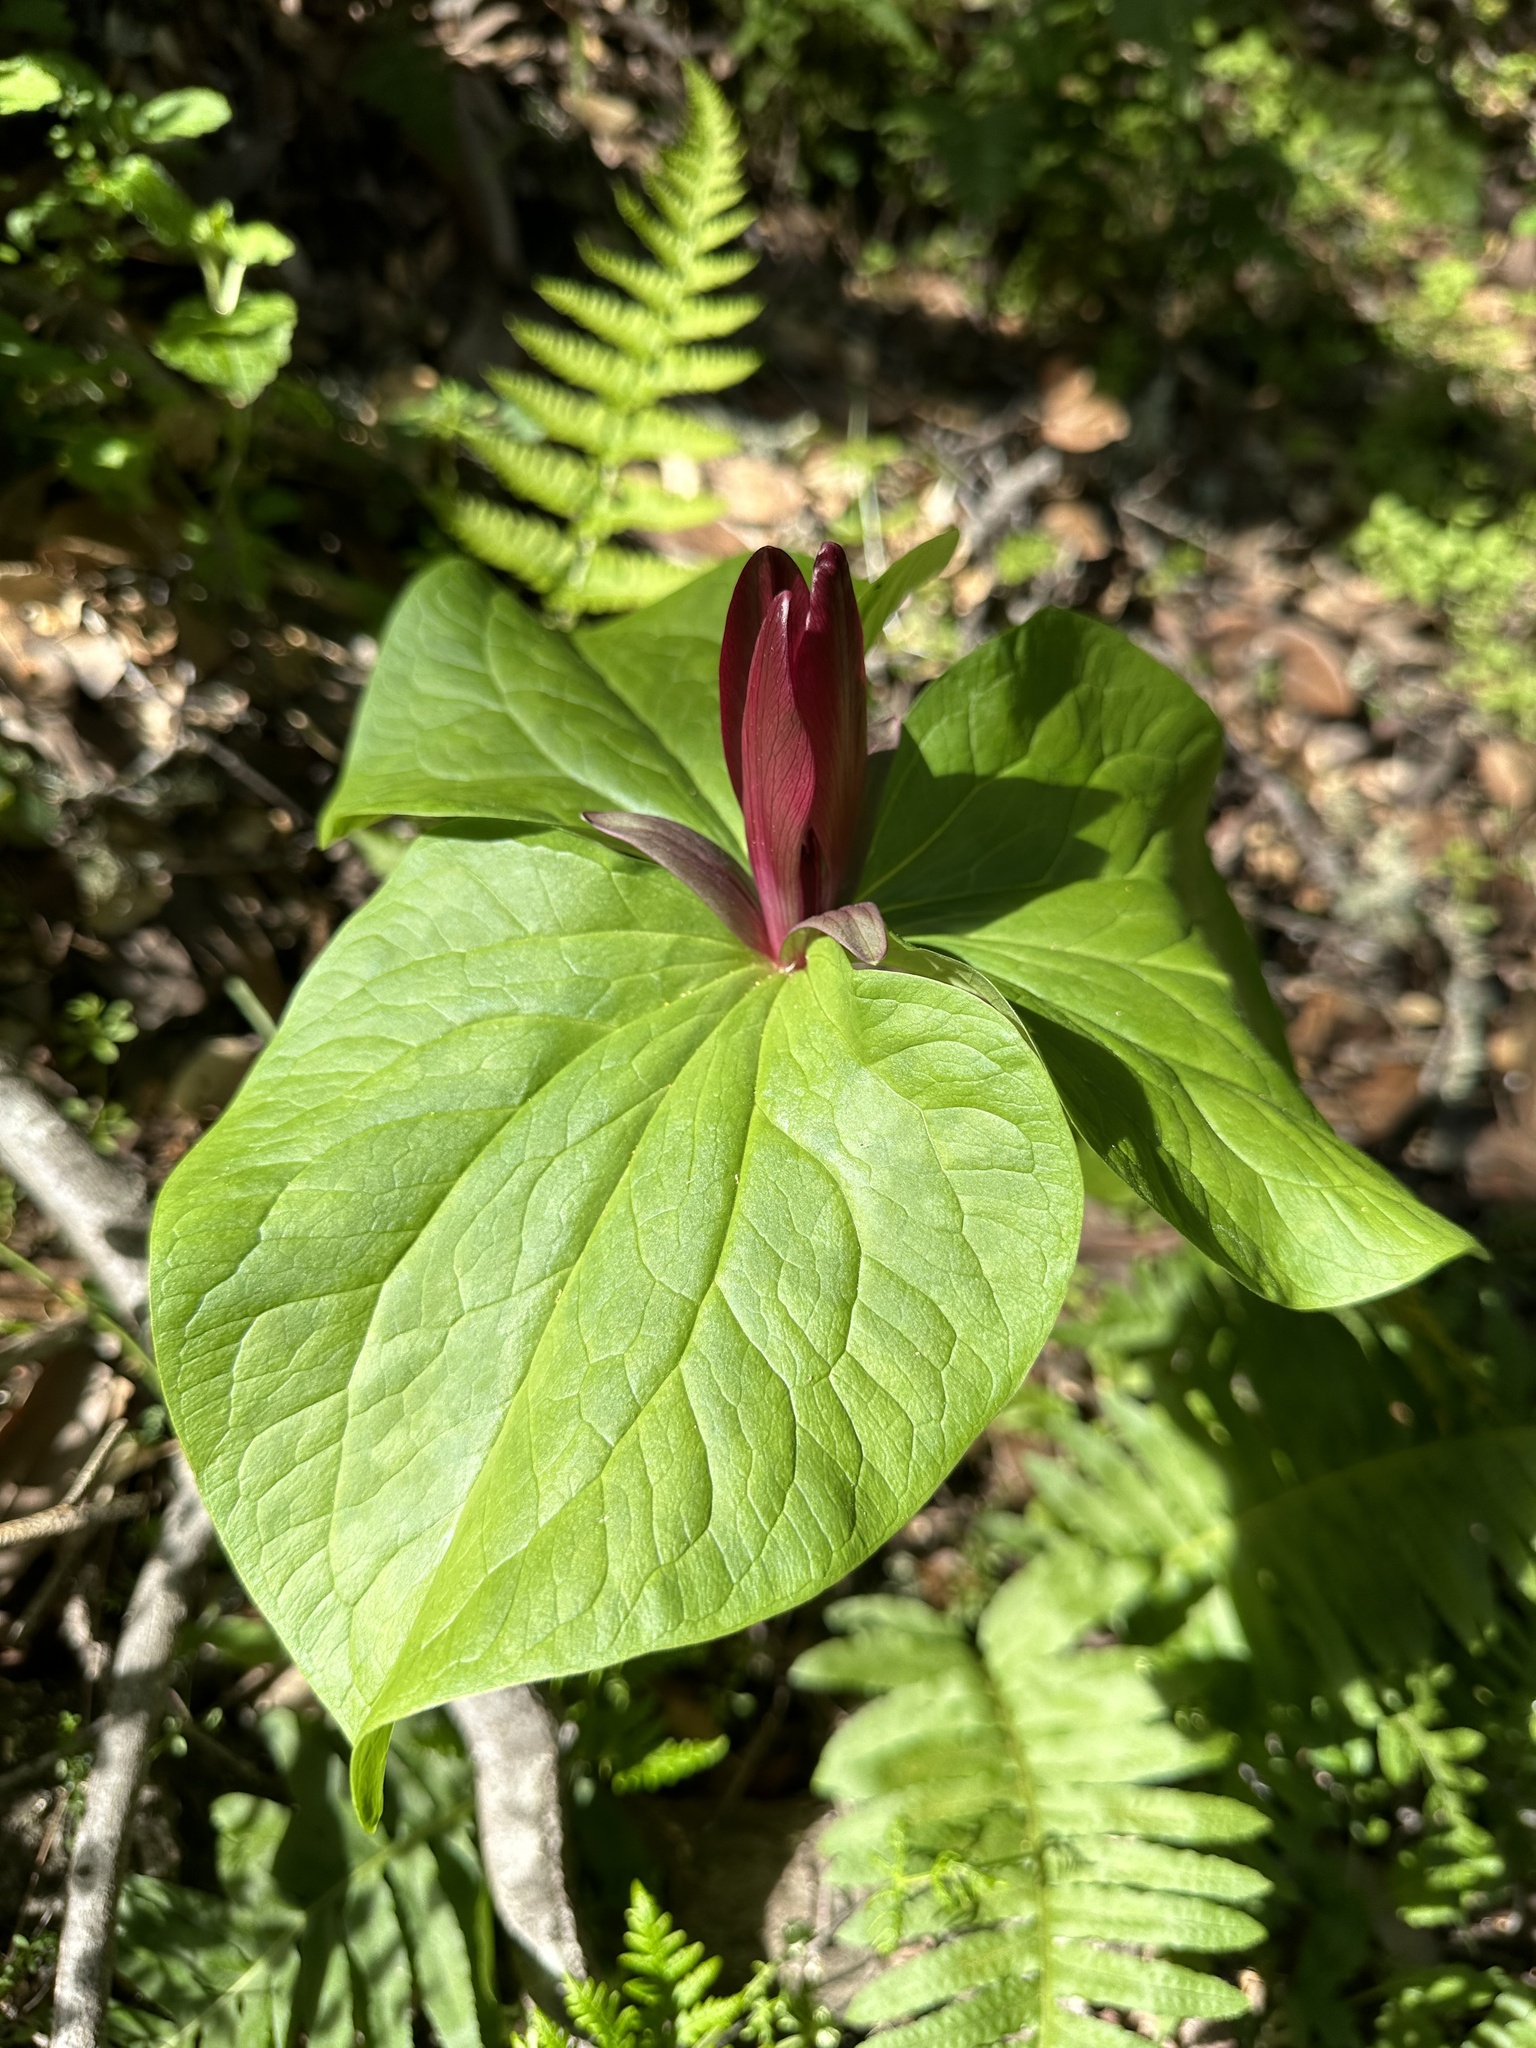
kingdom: Plantae
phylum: Tracheophyta
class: Liliopsida
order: Liliales
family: Melanthiaceae
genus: Trillium
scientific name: Trillium chloropetalum
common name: Giant trillium
